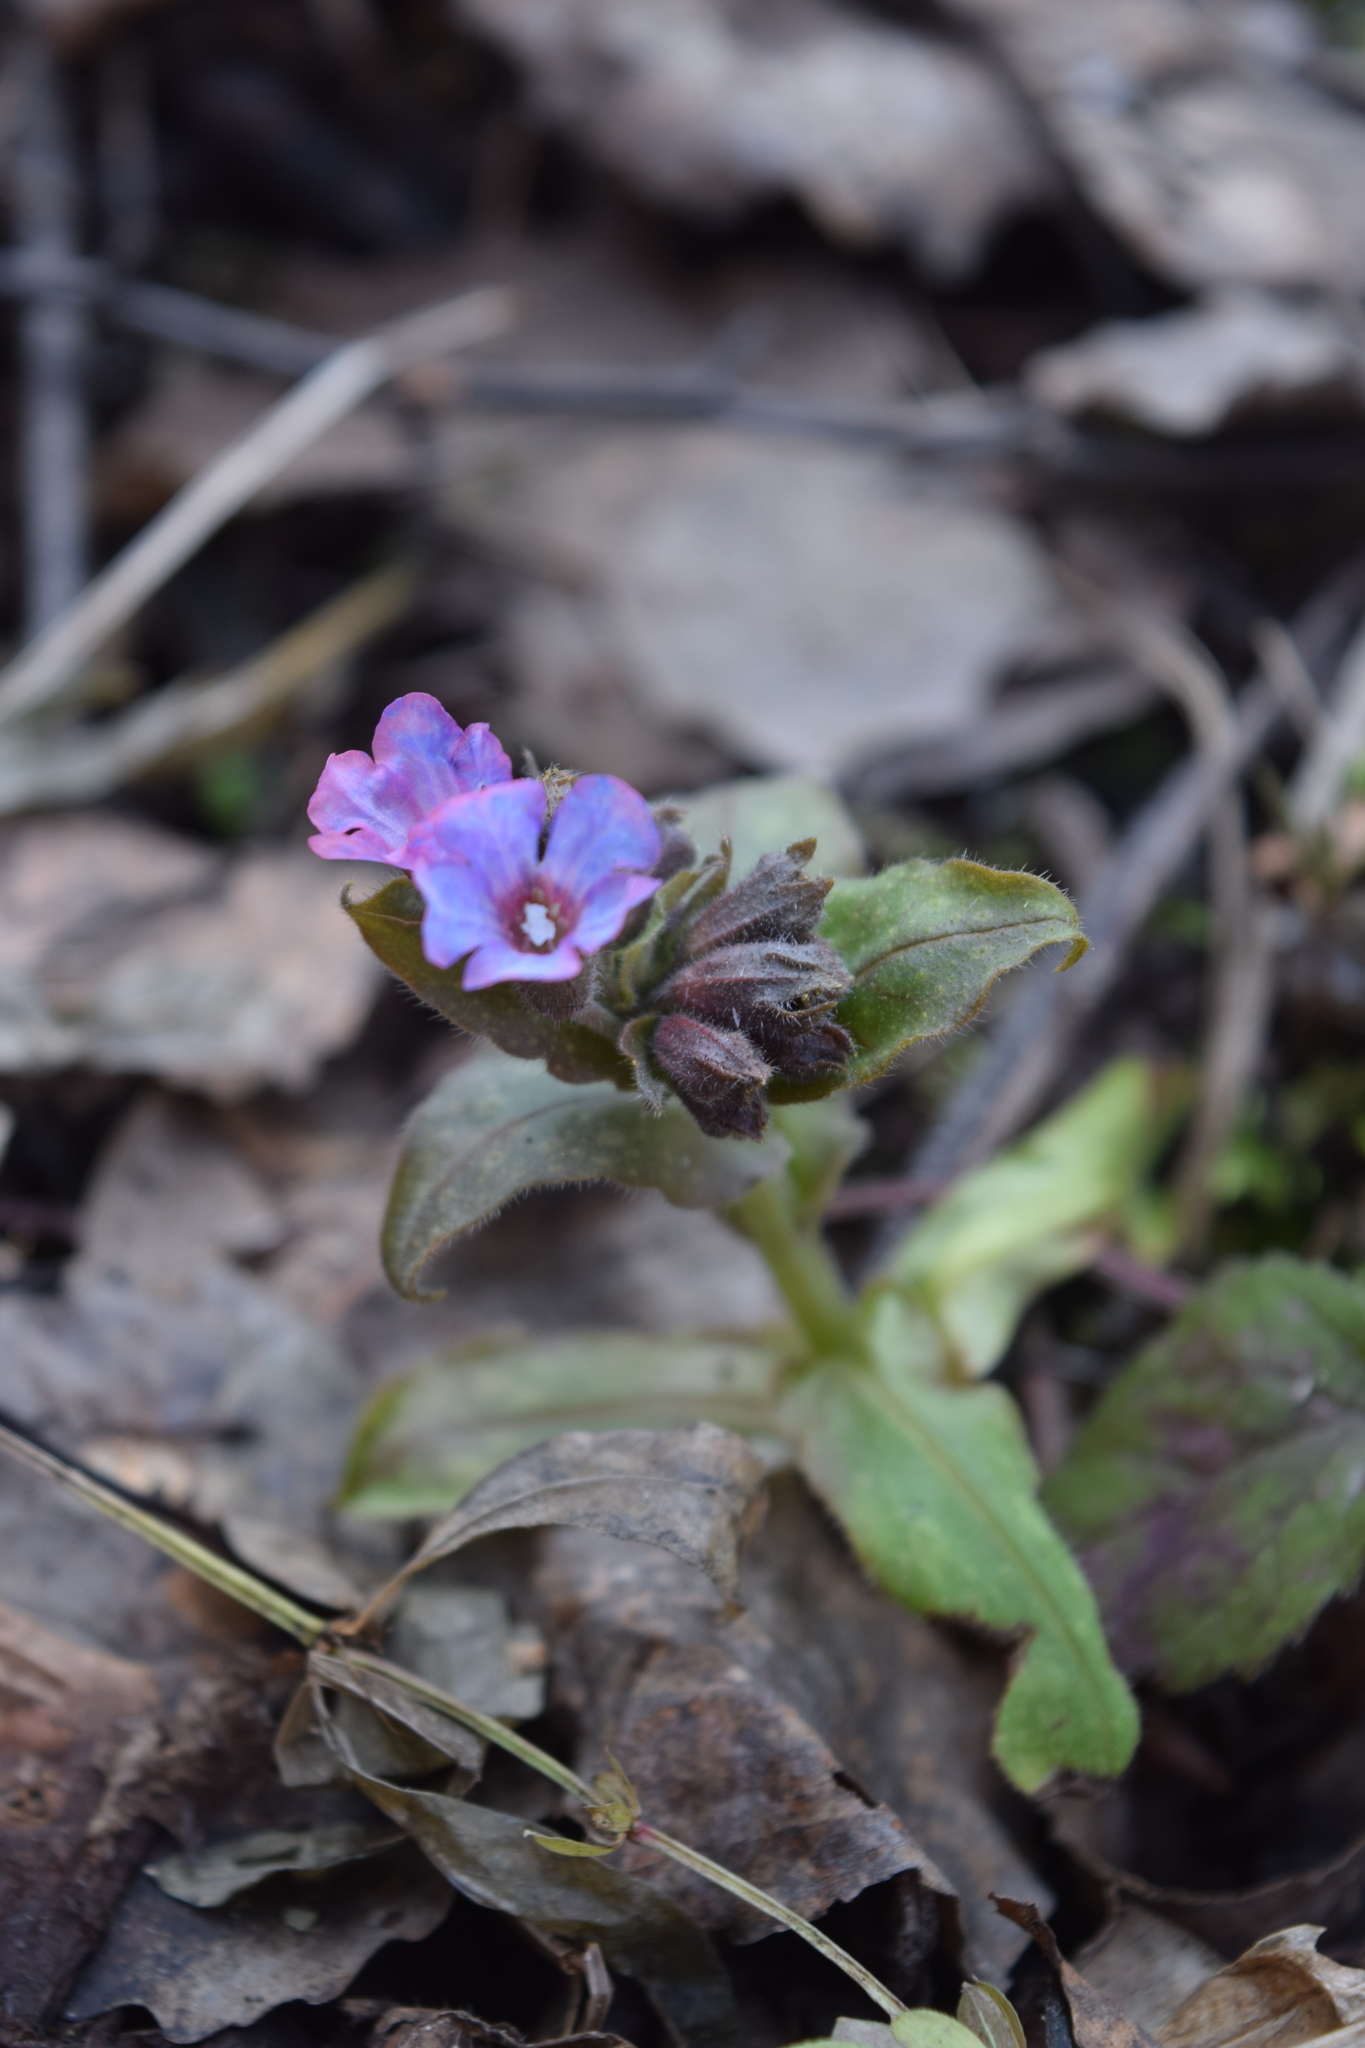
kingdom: Plantae
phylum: Tracheophyta
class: Magnoliopsida
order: Boraginales
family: Boraginaceae
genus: Pulmonaria
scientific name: Pulmonaria obscura
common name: Suffolk lungwort
